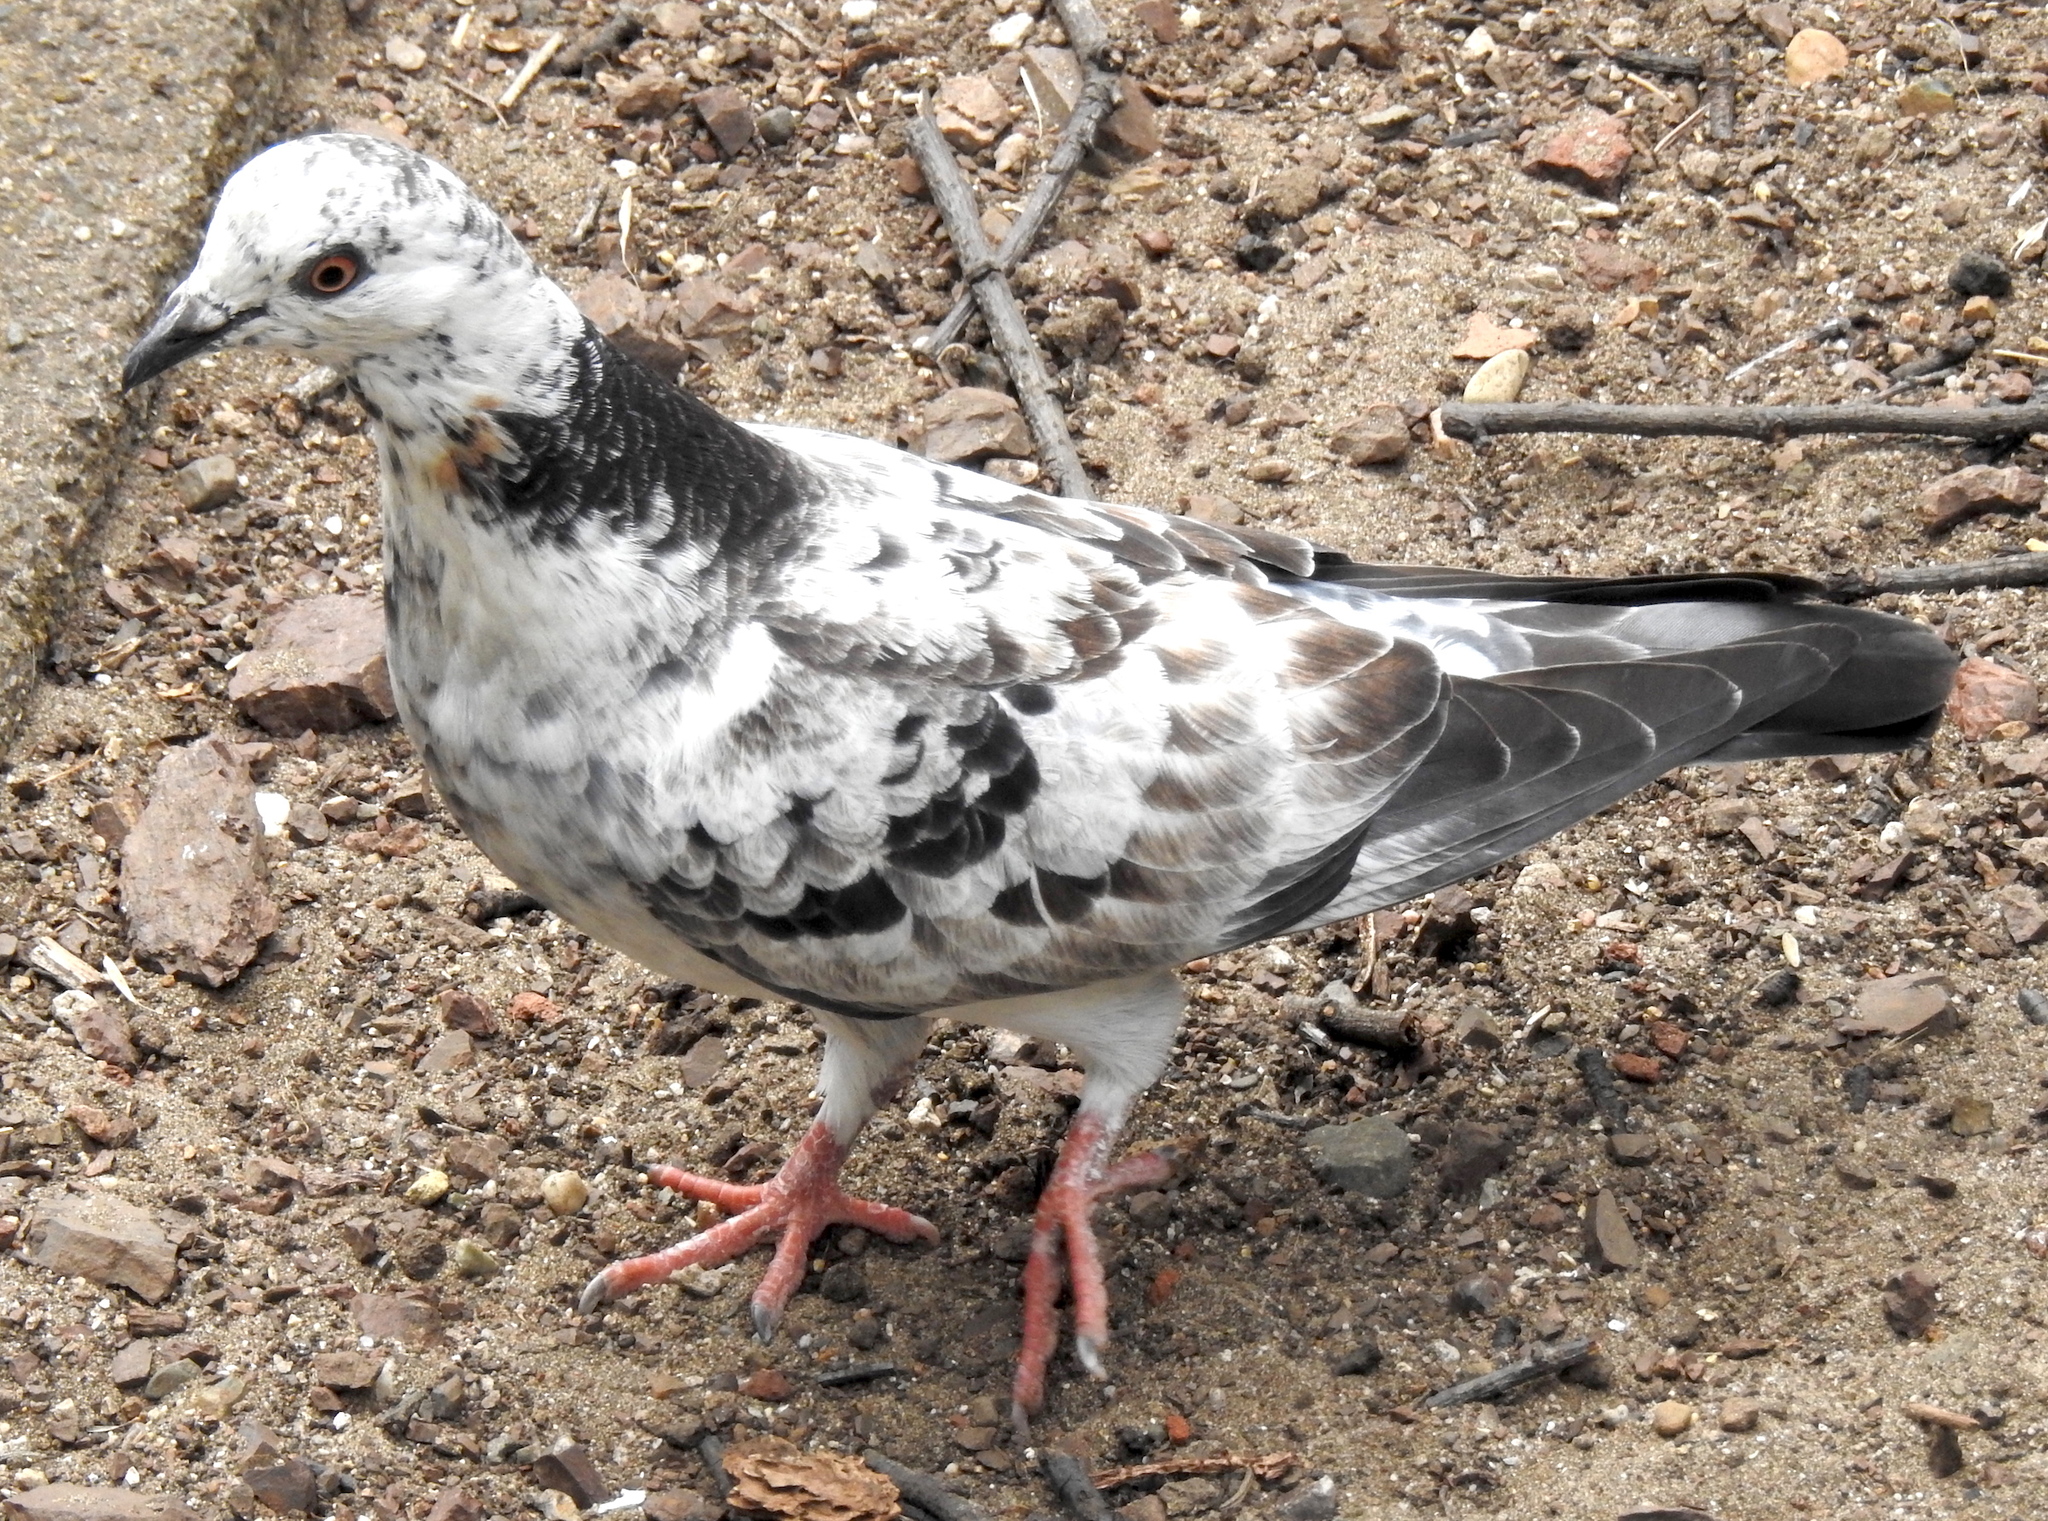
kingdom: Animalia
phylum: Chordata
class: Aves
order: Columbiformes
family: Columbidae
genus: Columba
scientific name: Columba livia
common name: Rock pigeon
